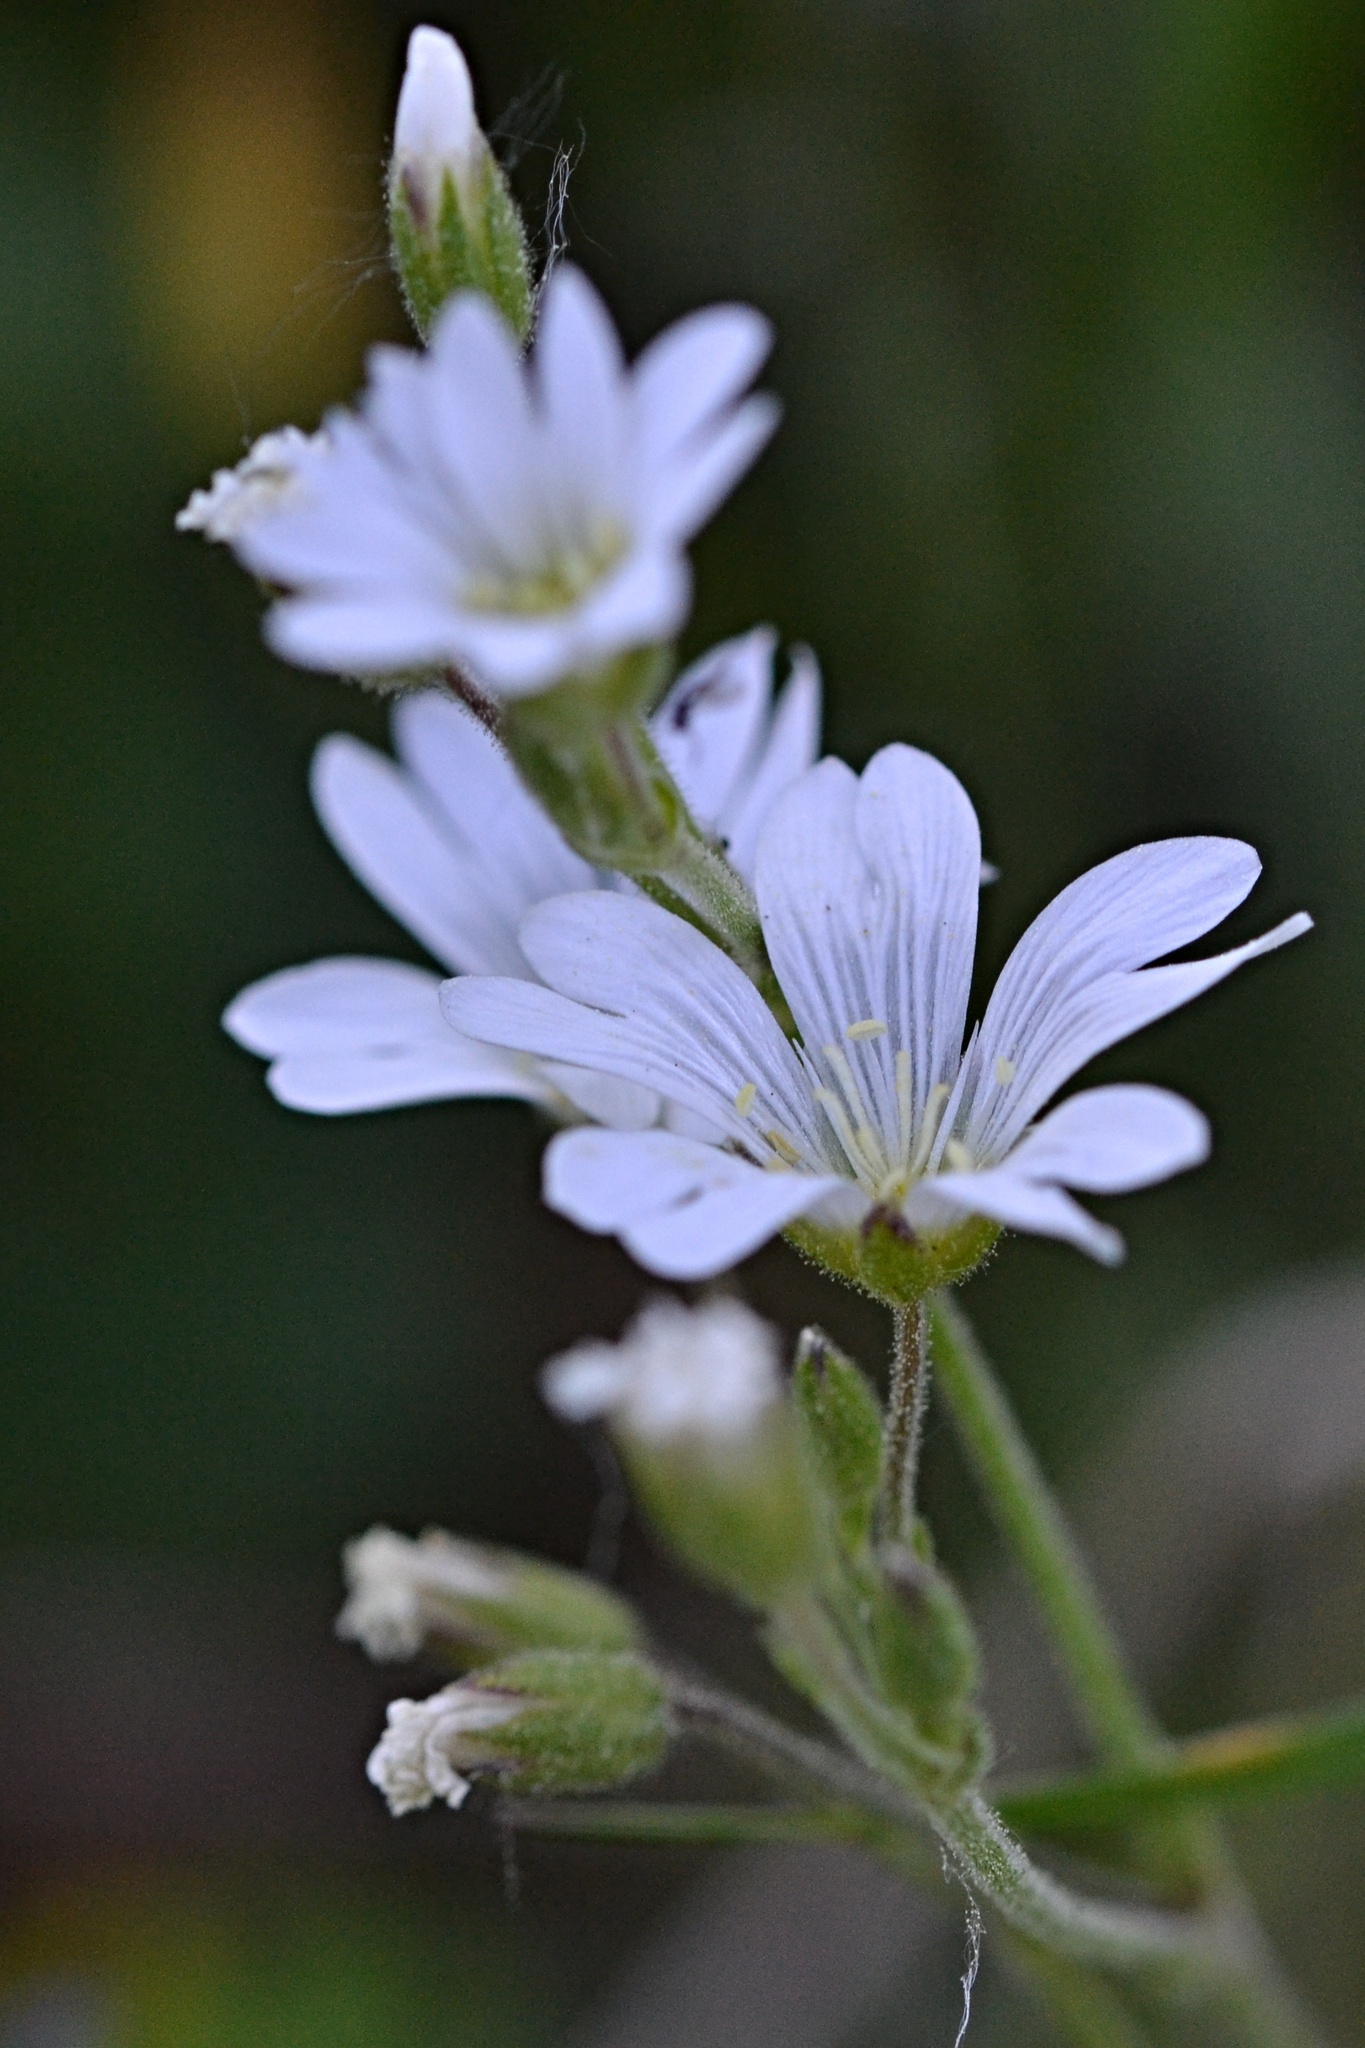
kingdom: Plantae
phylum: Tracheophyta
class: Magnoliopsida
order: Caryophyllales
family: Caryophyllaceae
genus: Cerastium
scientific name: Cerastium arvense
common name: Field mouse-ear
